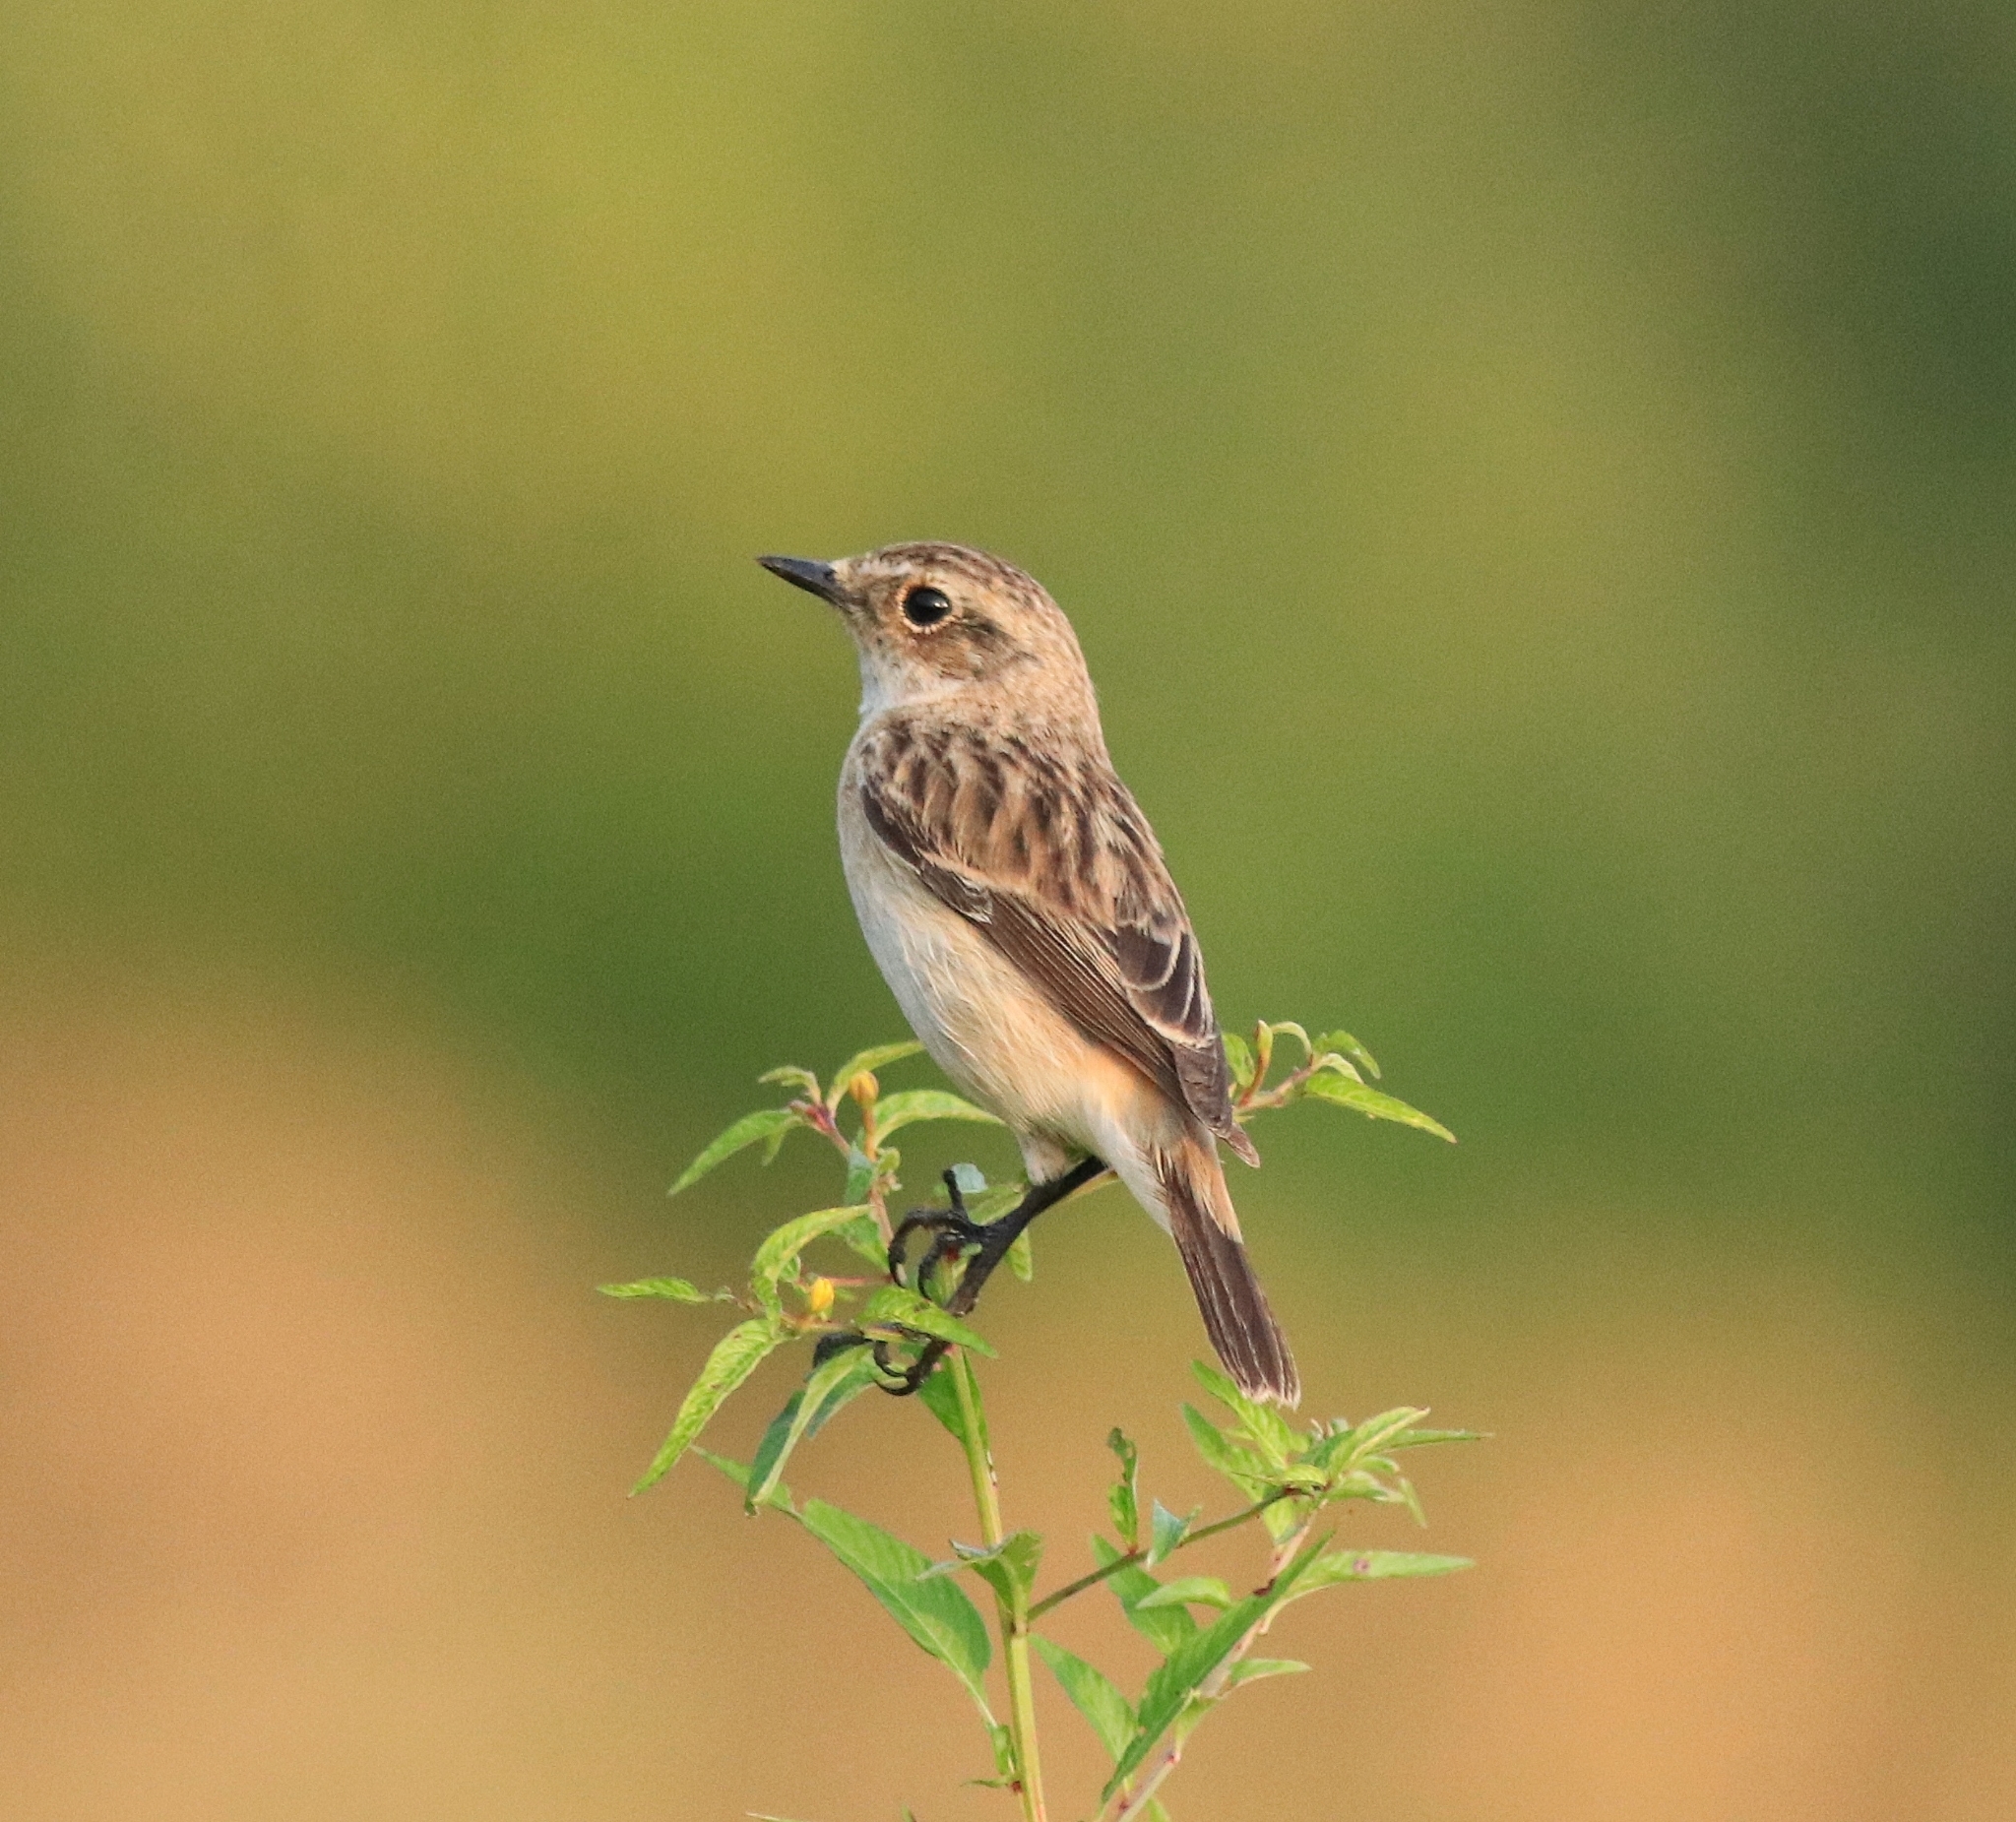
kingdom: Animalia
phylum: Chordata
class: Aves
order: Passeriformes
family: Muscicapidae
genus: Saxicola
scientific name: Saxicola maurus
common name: Siberian stonechat
